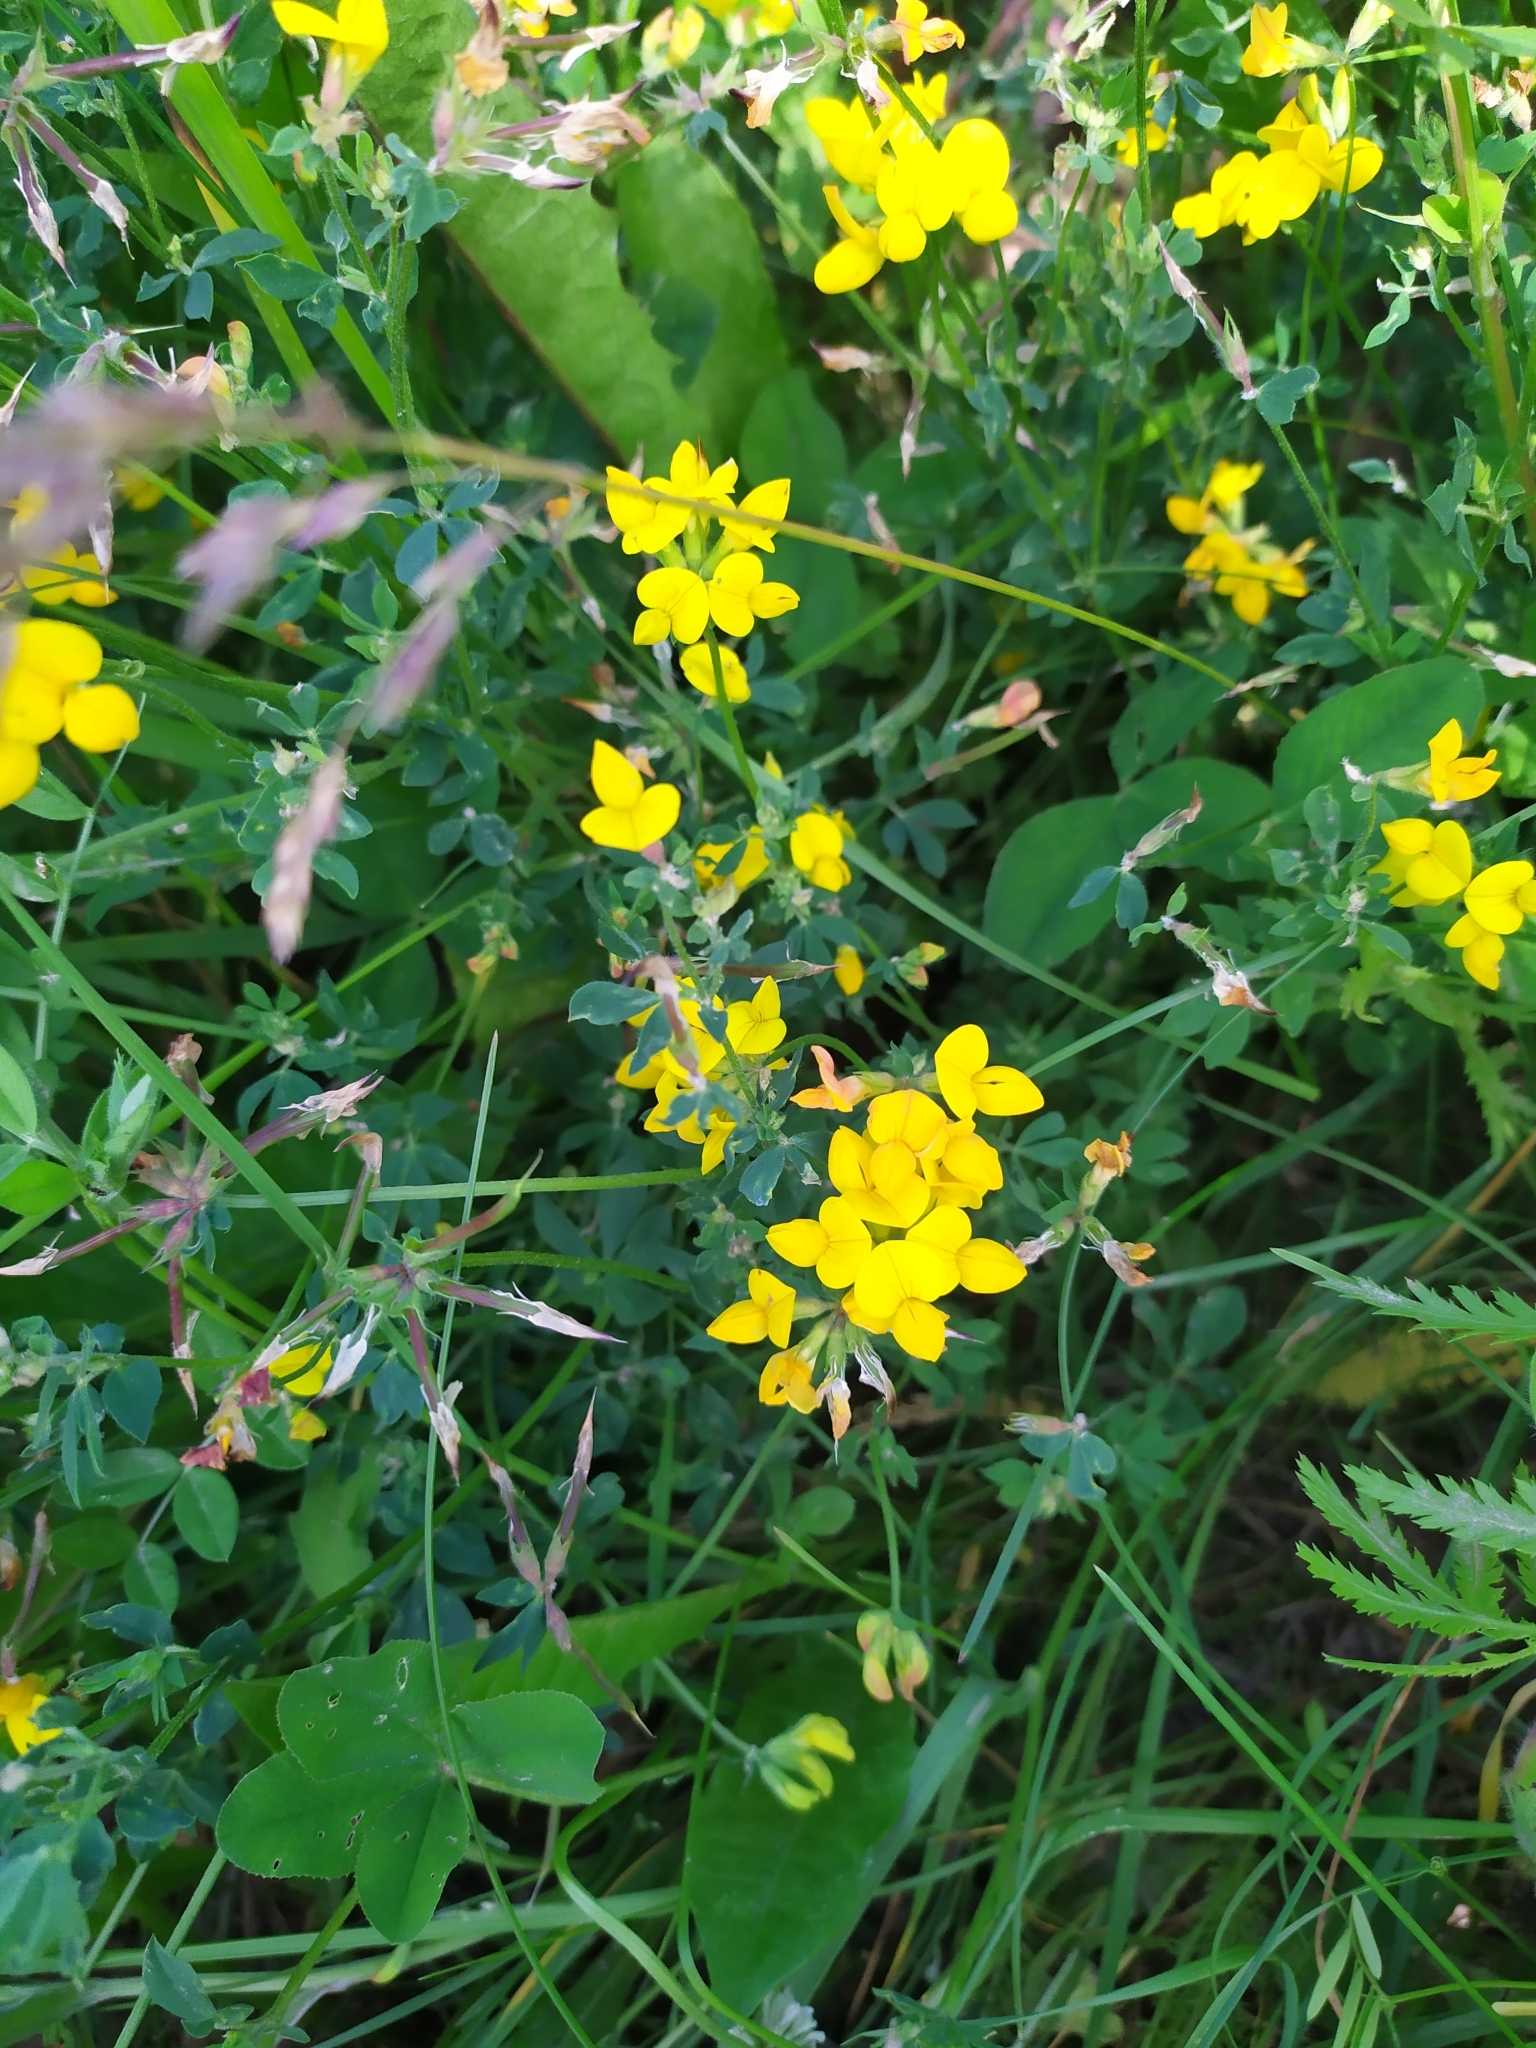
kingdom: Plantae
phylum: Tracheophyta
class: Magnoliopsida
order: Fabales
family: Fabaceae
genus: Lotus
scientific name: Lotus corniculatus
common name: Common bird's-foot-trefoil
